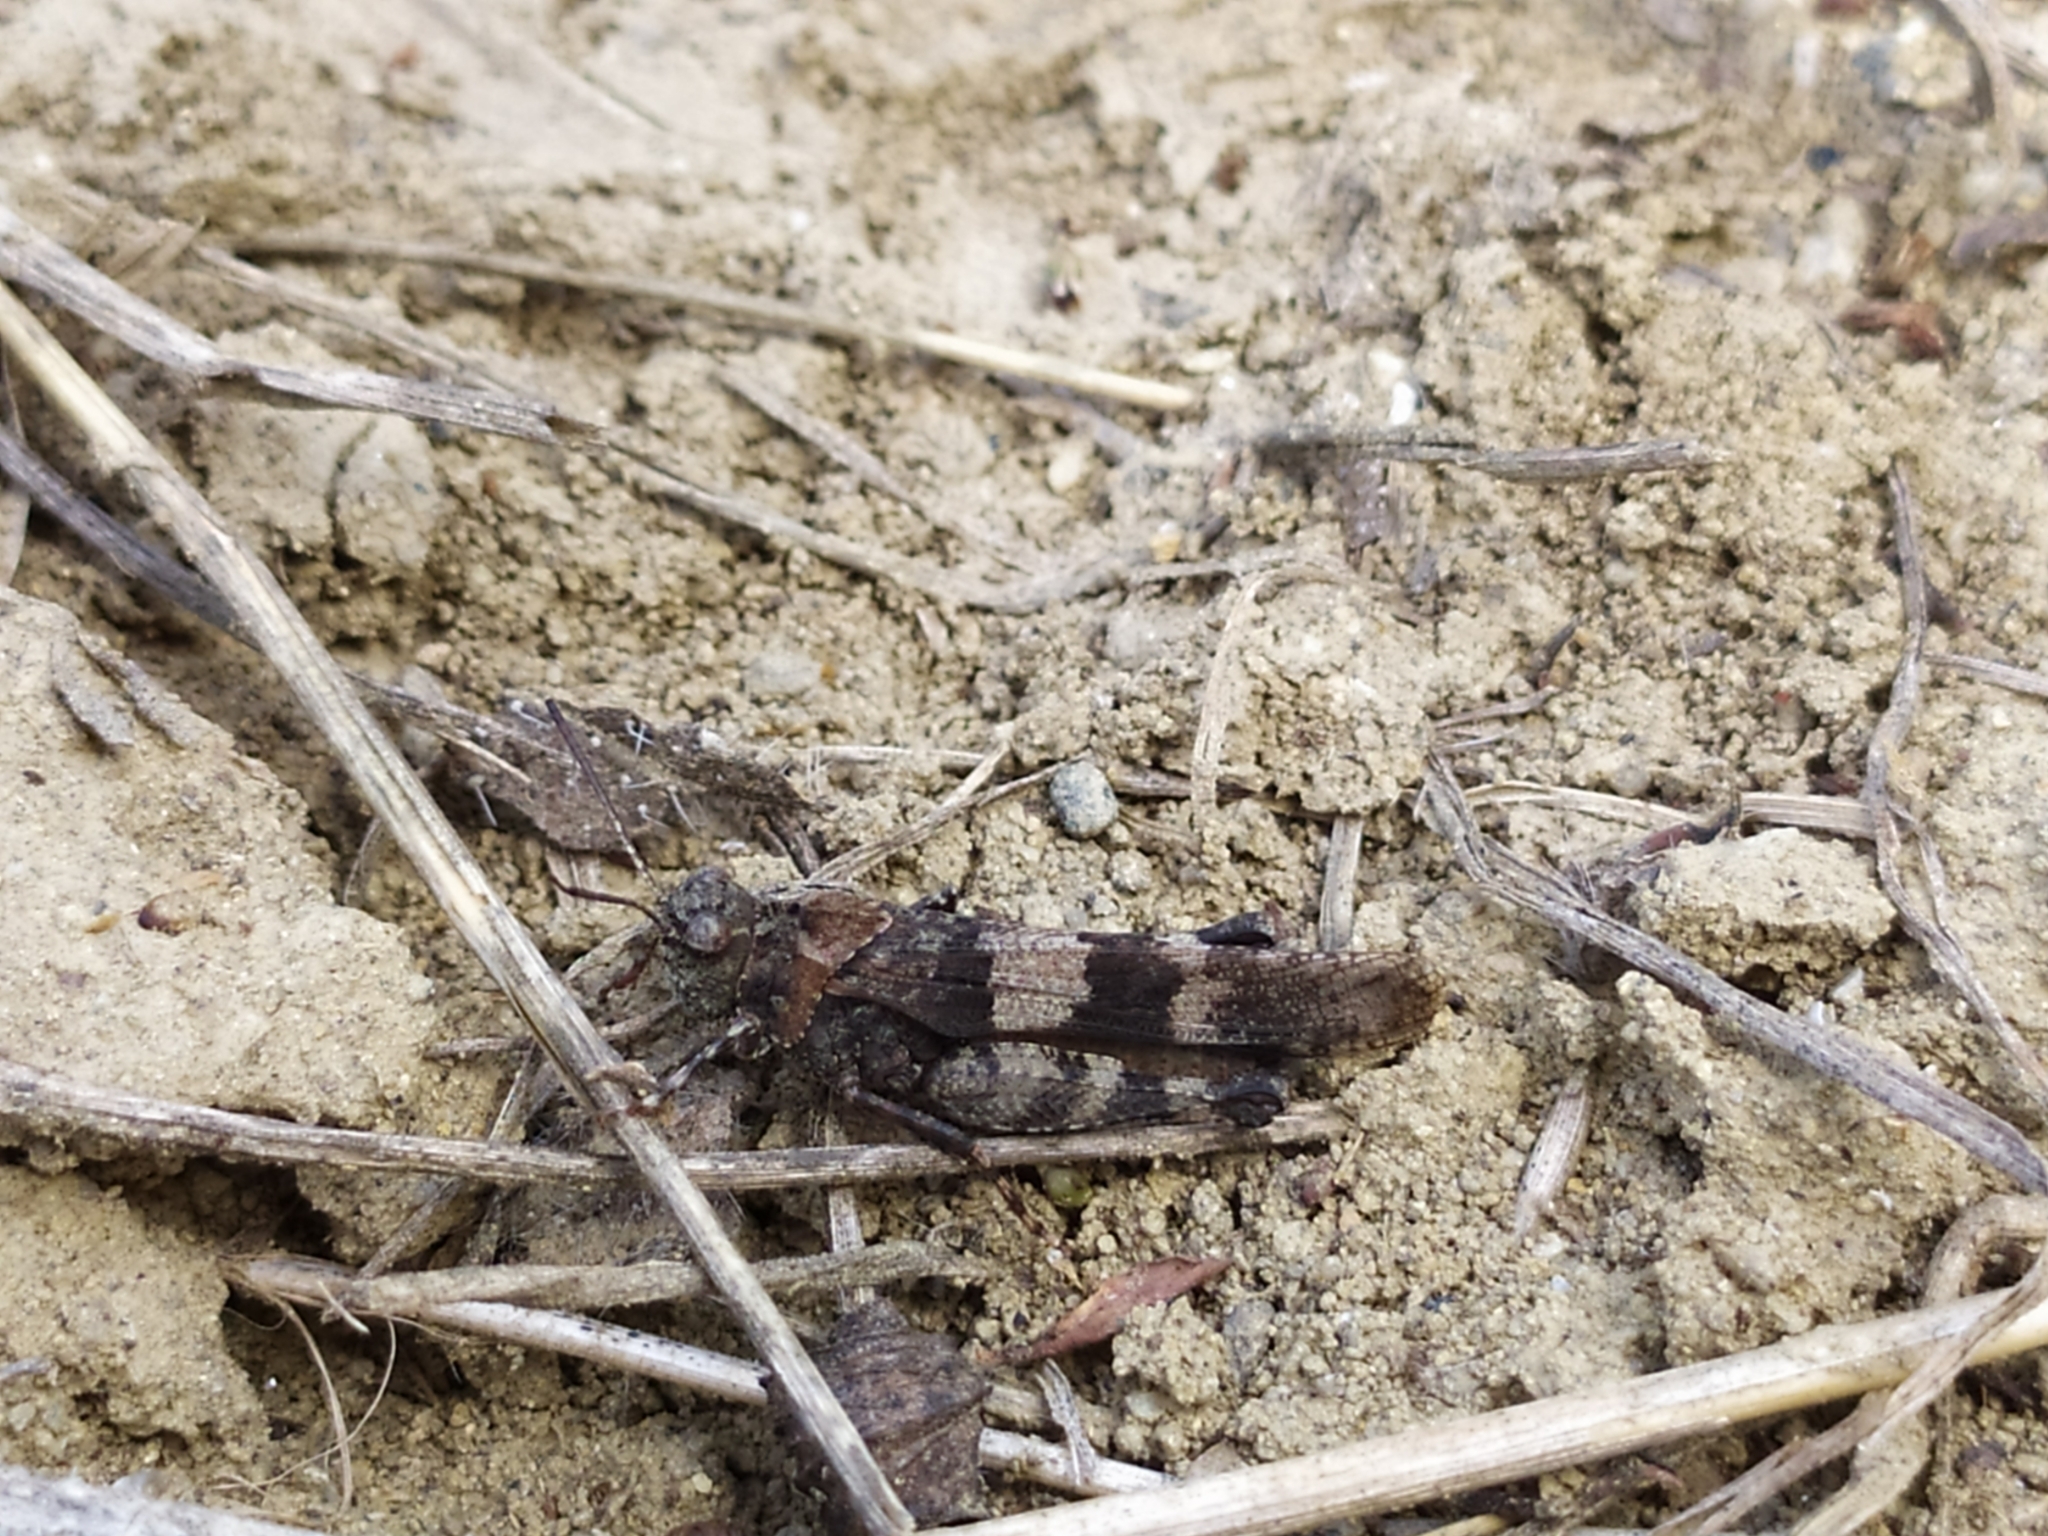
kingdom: Animalia
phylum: Arthropoda
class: Insecta
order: Orthoptera
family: Acrididae
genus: Oedipoda
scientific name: Oedipoda caerulescens
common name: Blue-winged grasshopper
